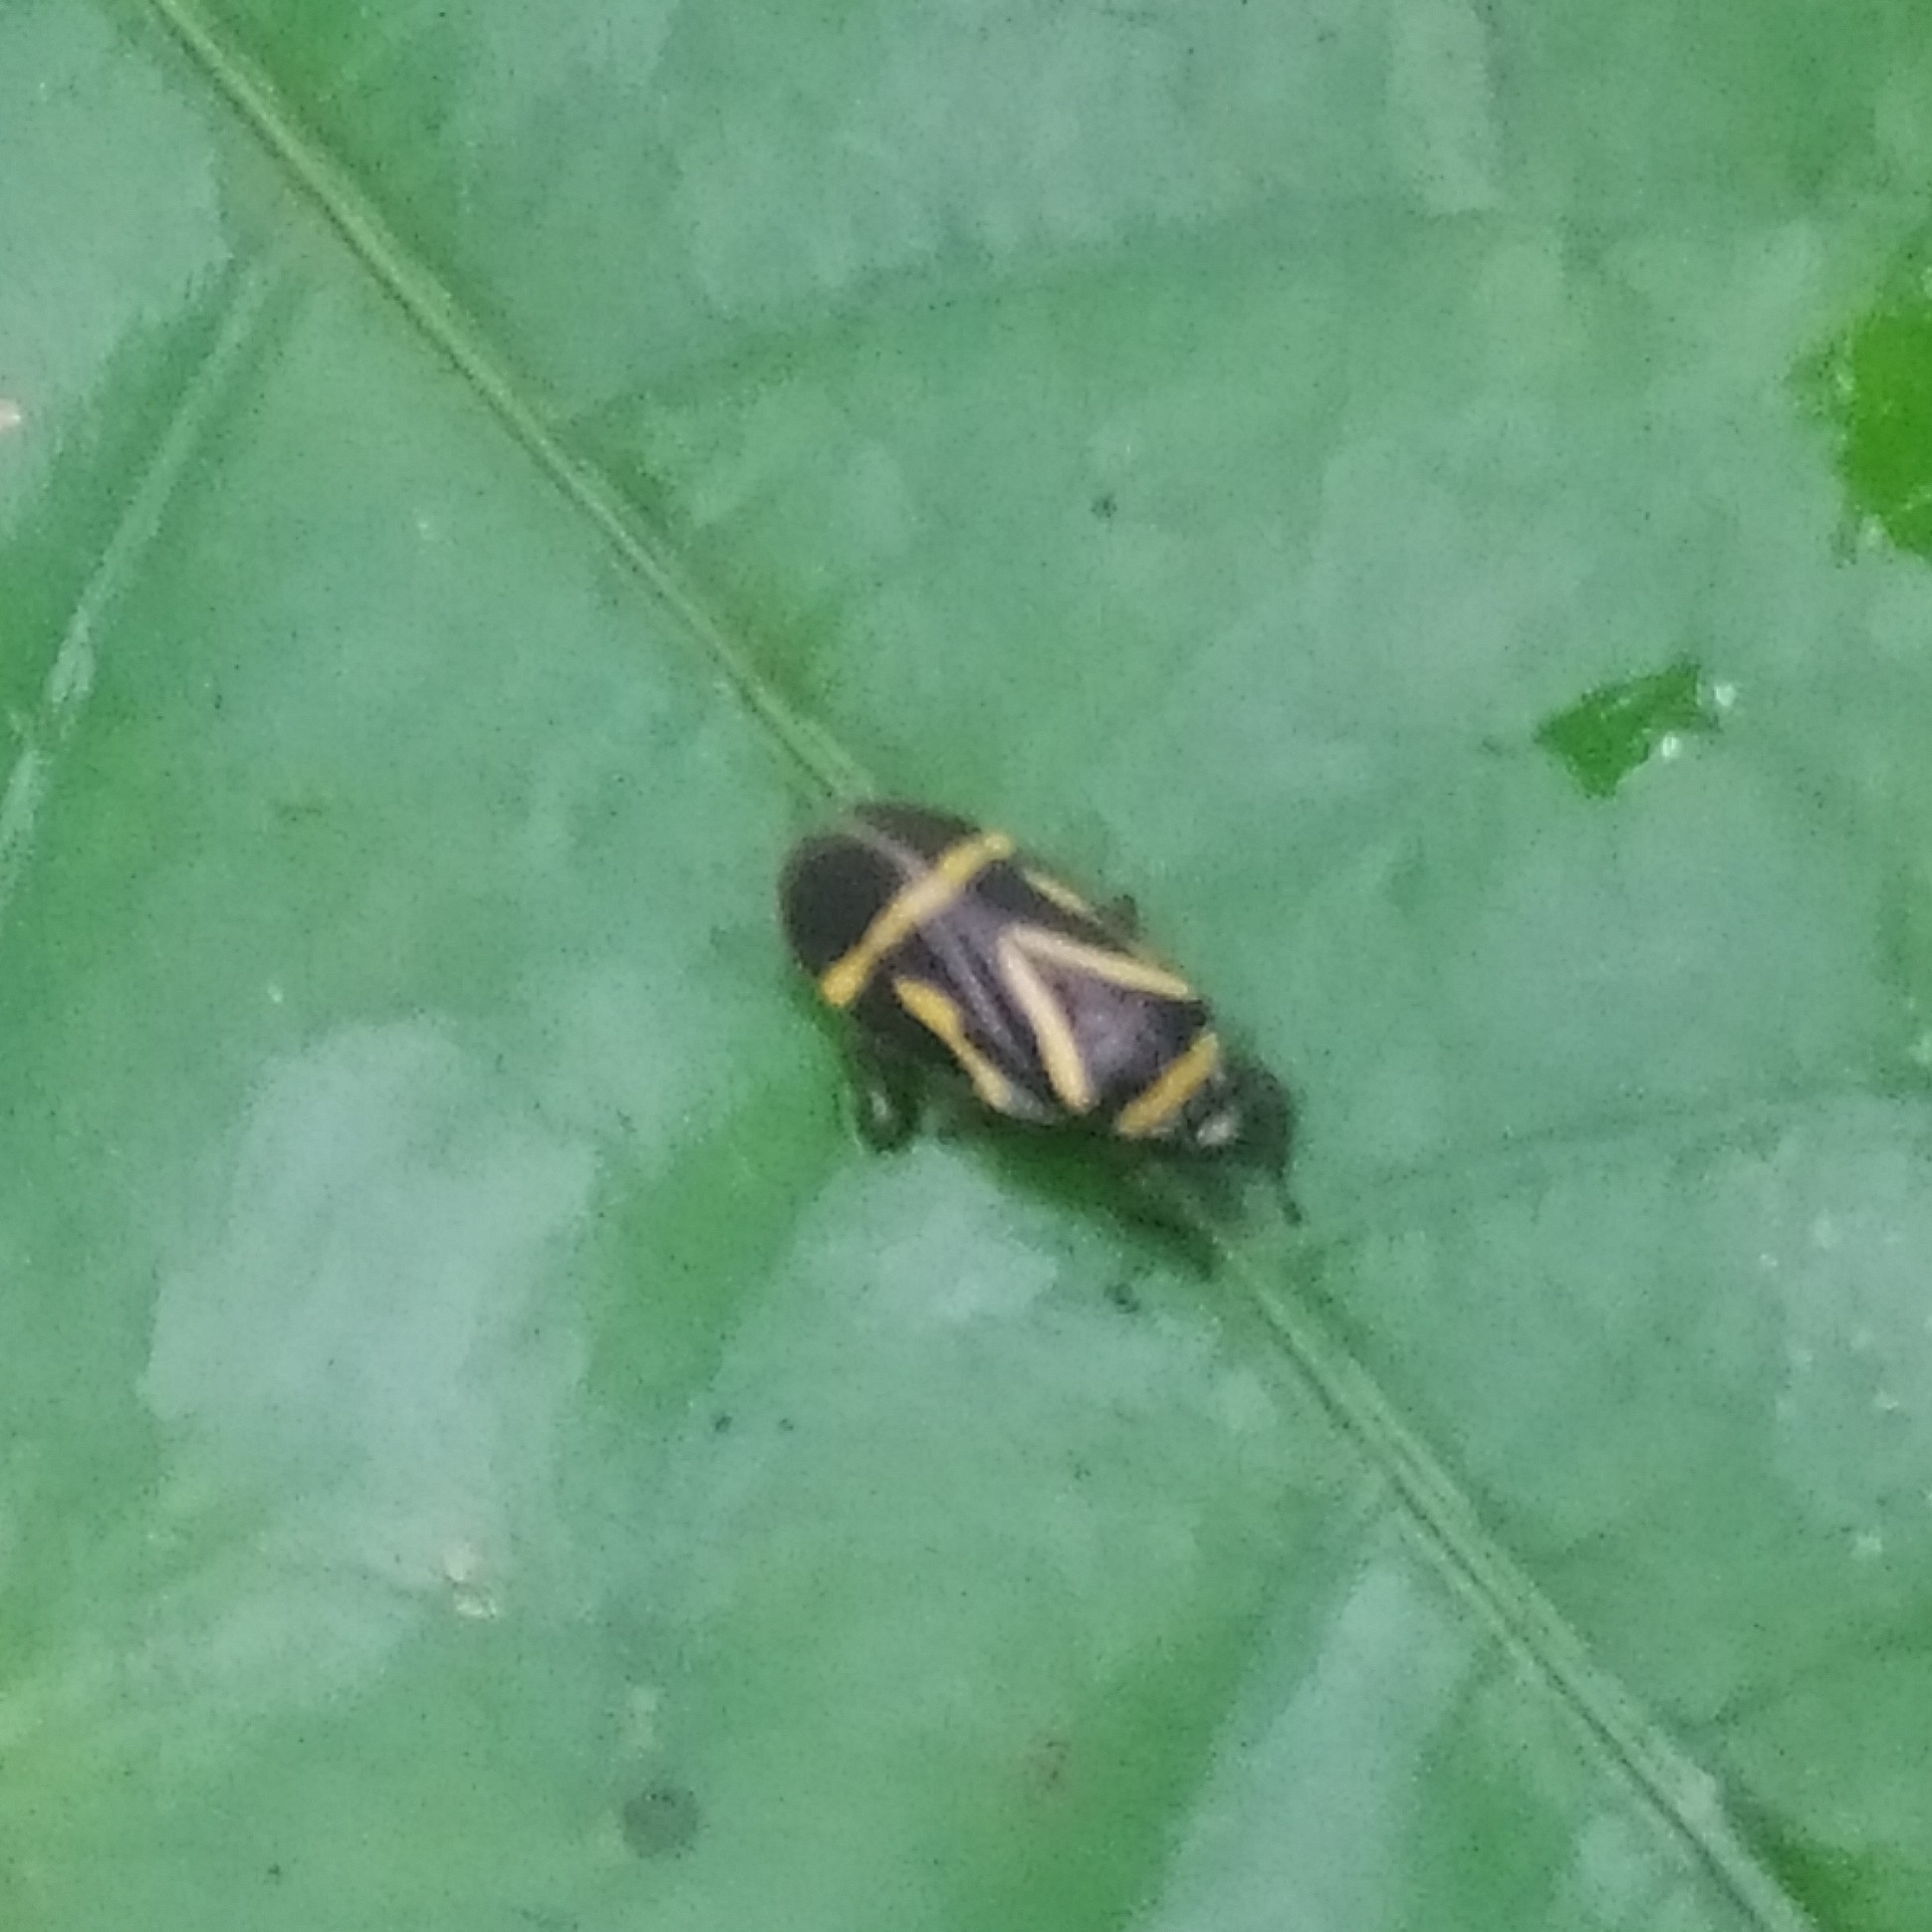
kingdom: Animalia
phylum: Arthropoda
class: Insecta
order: Hemiptera
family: Cercopidae
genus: Maxantonia
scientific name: Maxantonia lineola
